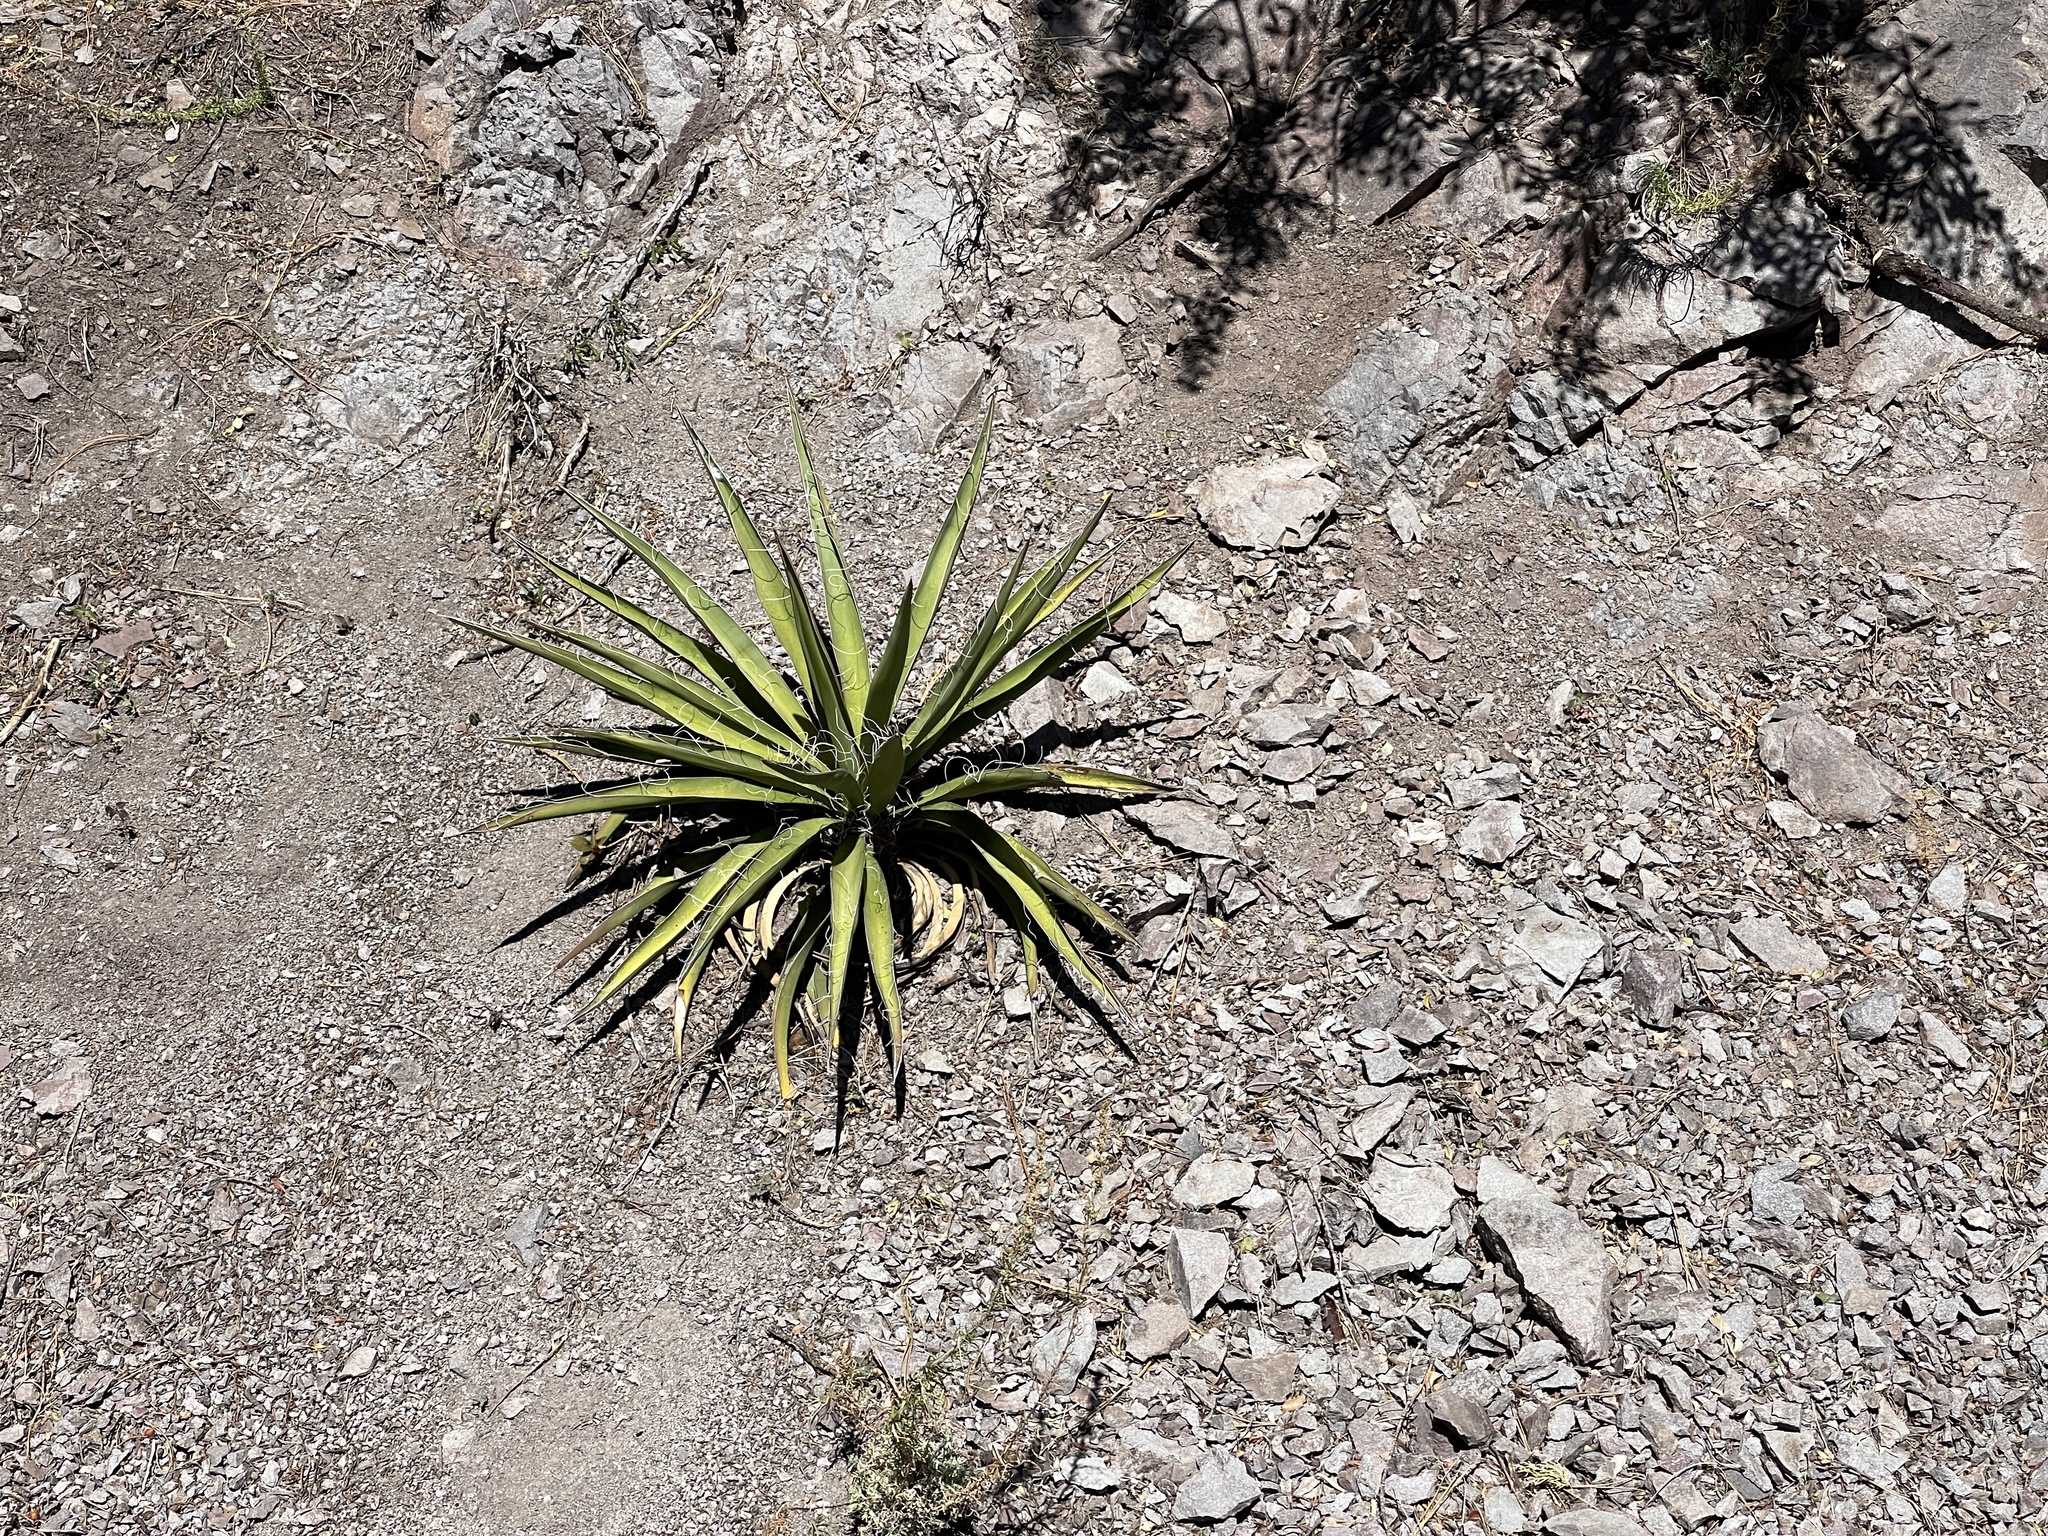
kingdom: Plantae
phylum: Tracheophyta
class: Liliopsida
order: Asparagales
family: Asparagaceae
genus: Yucca
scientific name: Yucca baccata
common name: Banana yucca
